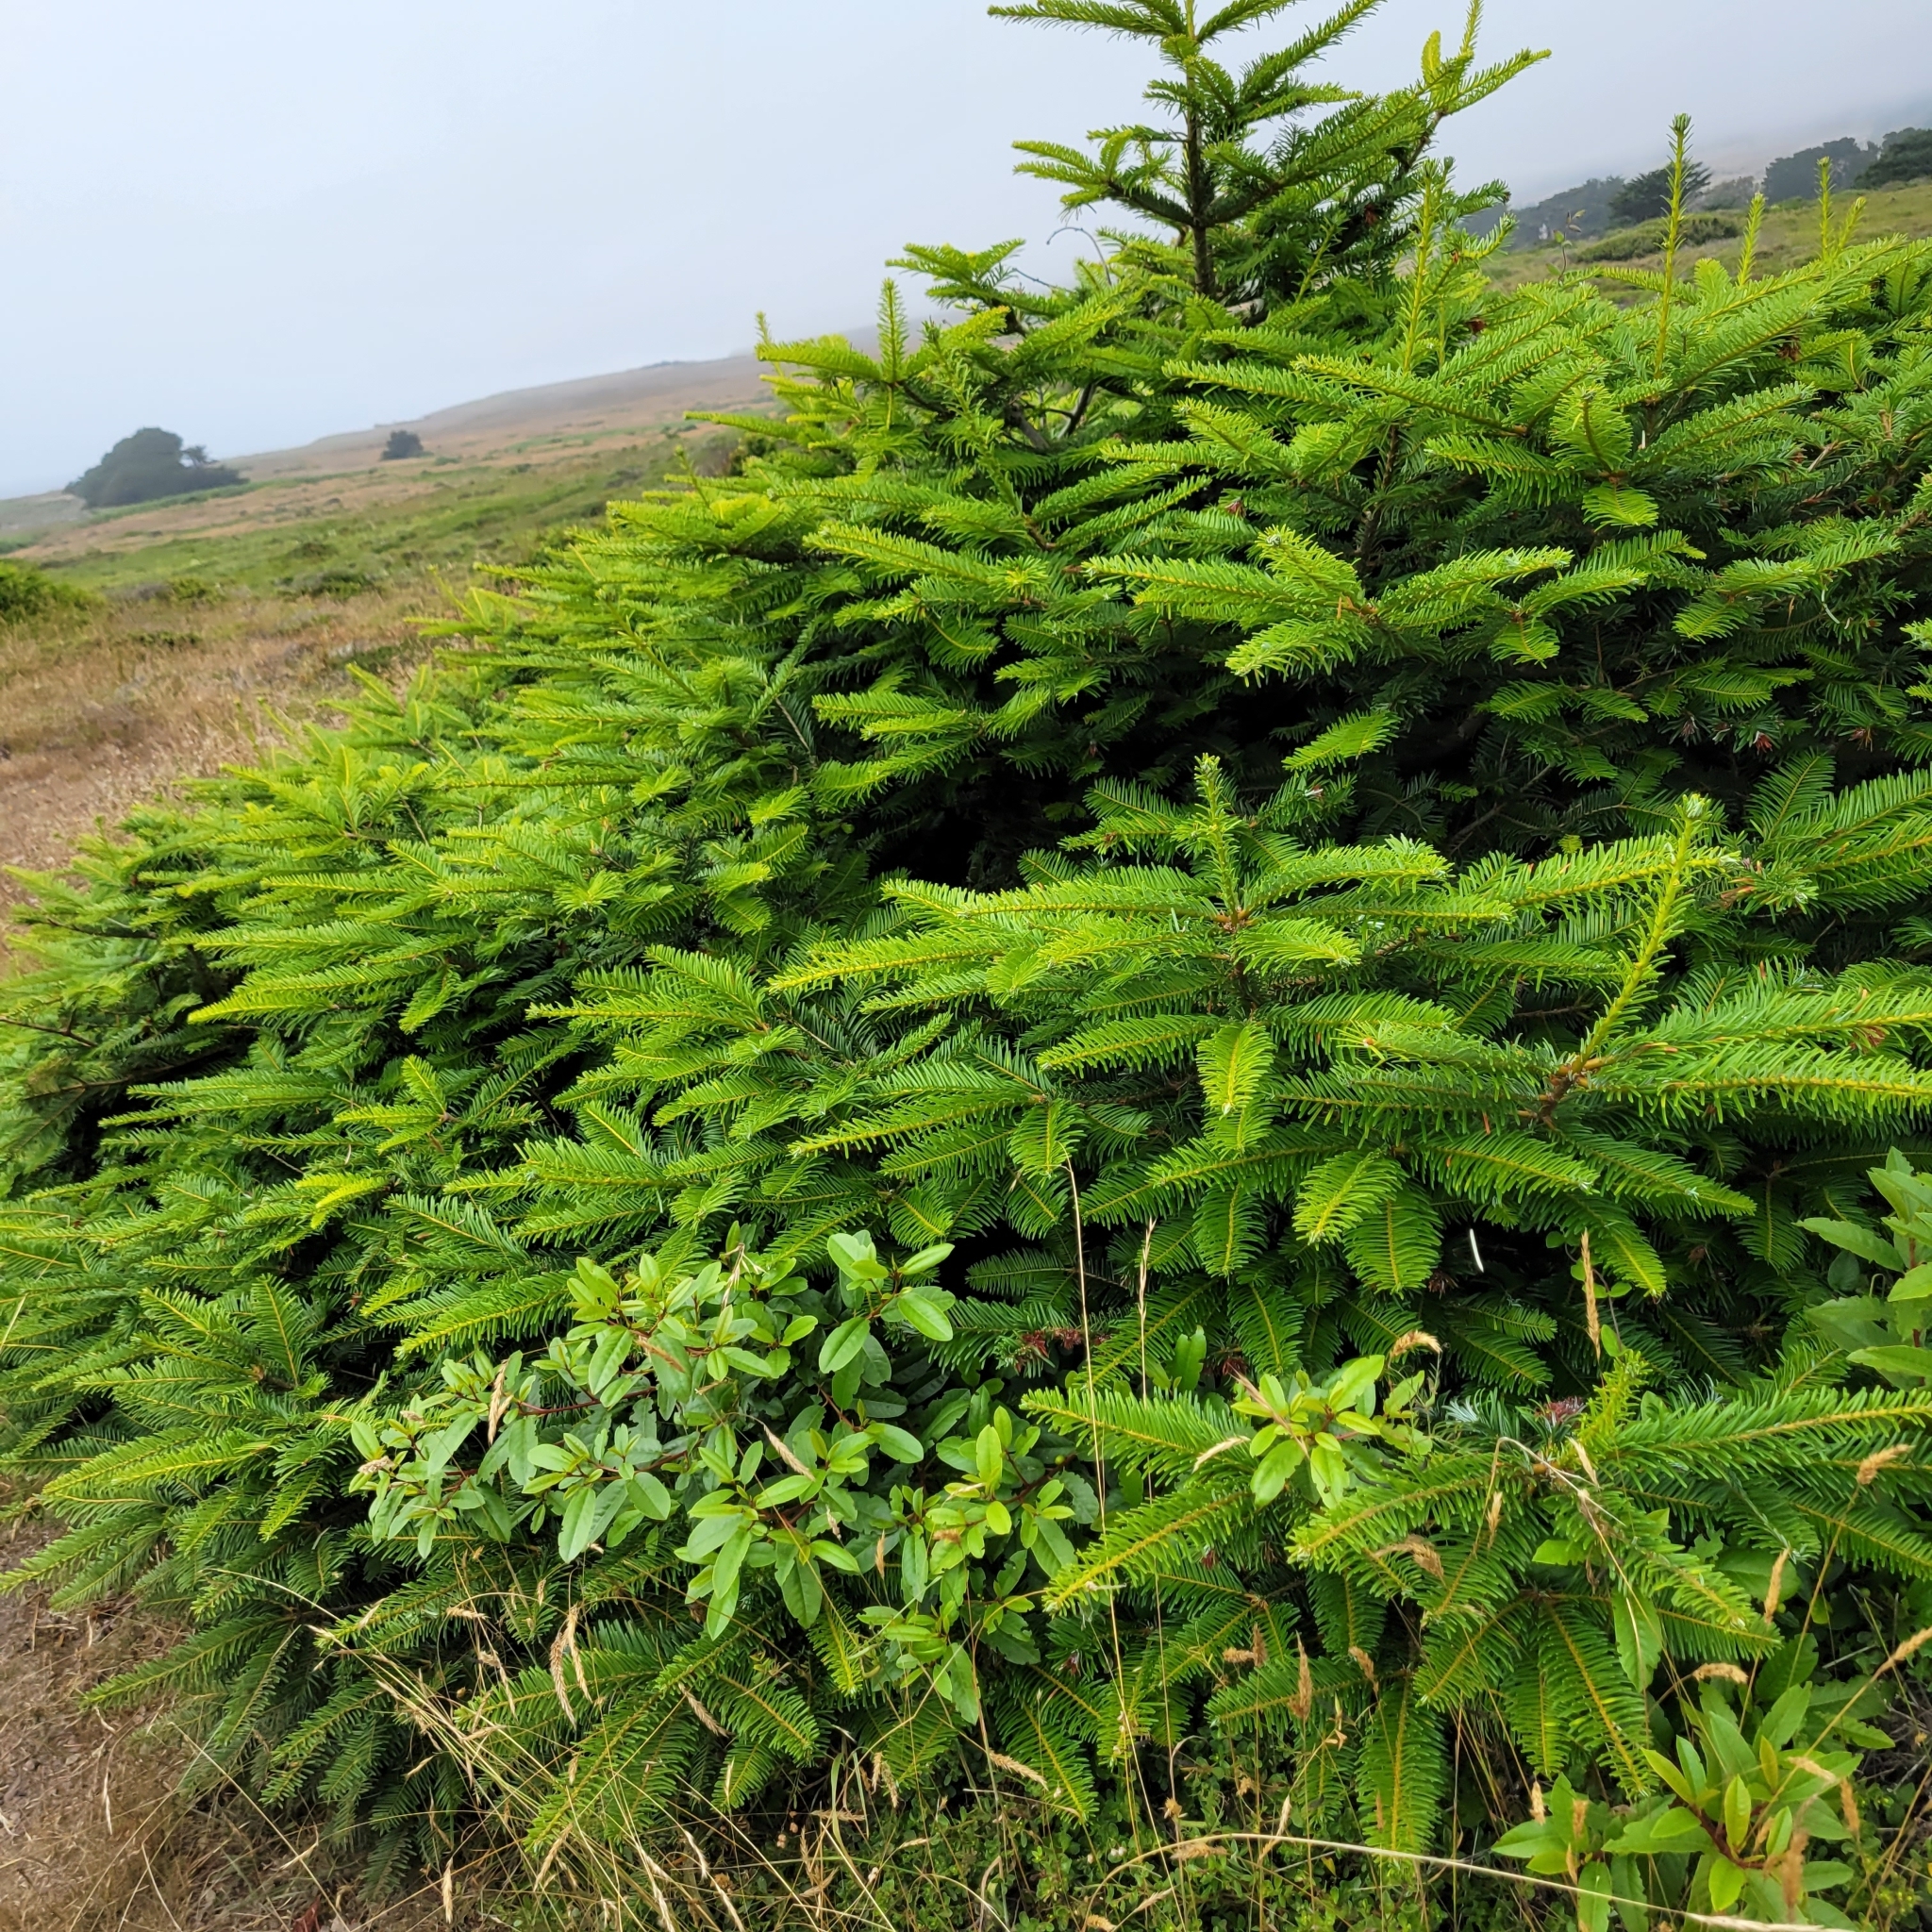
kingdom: Plantae
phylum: Tracheophyta
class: Pinopsida
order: Pinales
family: Pinaceae
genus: Abies
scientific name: Abies grandis
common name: Giant fir
